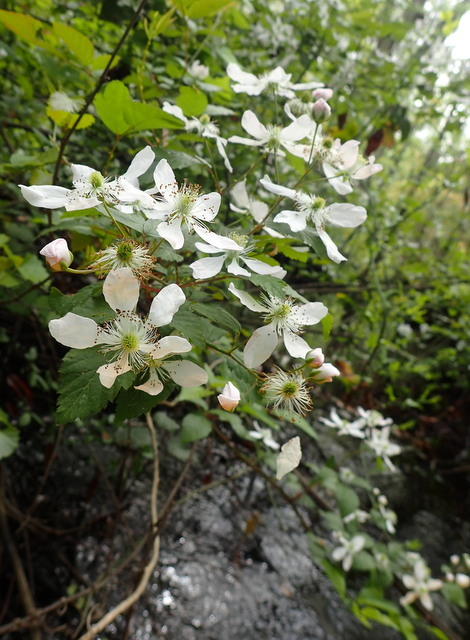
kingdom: Plantae
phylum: Tracheophyta
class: Magnoliopsida
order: Rosales
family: Rosaceae
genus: Rubus
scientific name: Rubus pensilvanicus
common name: Pennsylvania blackberry
